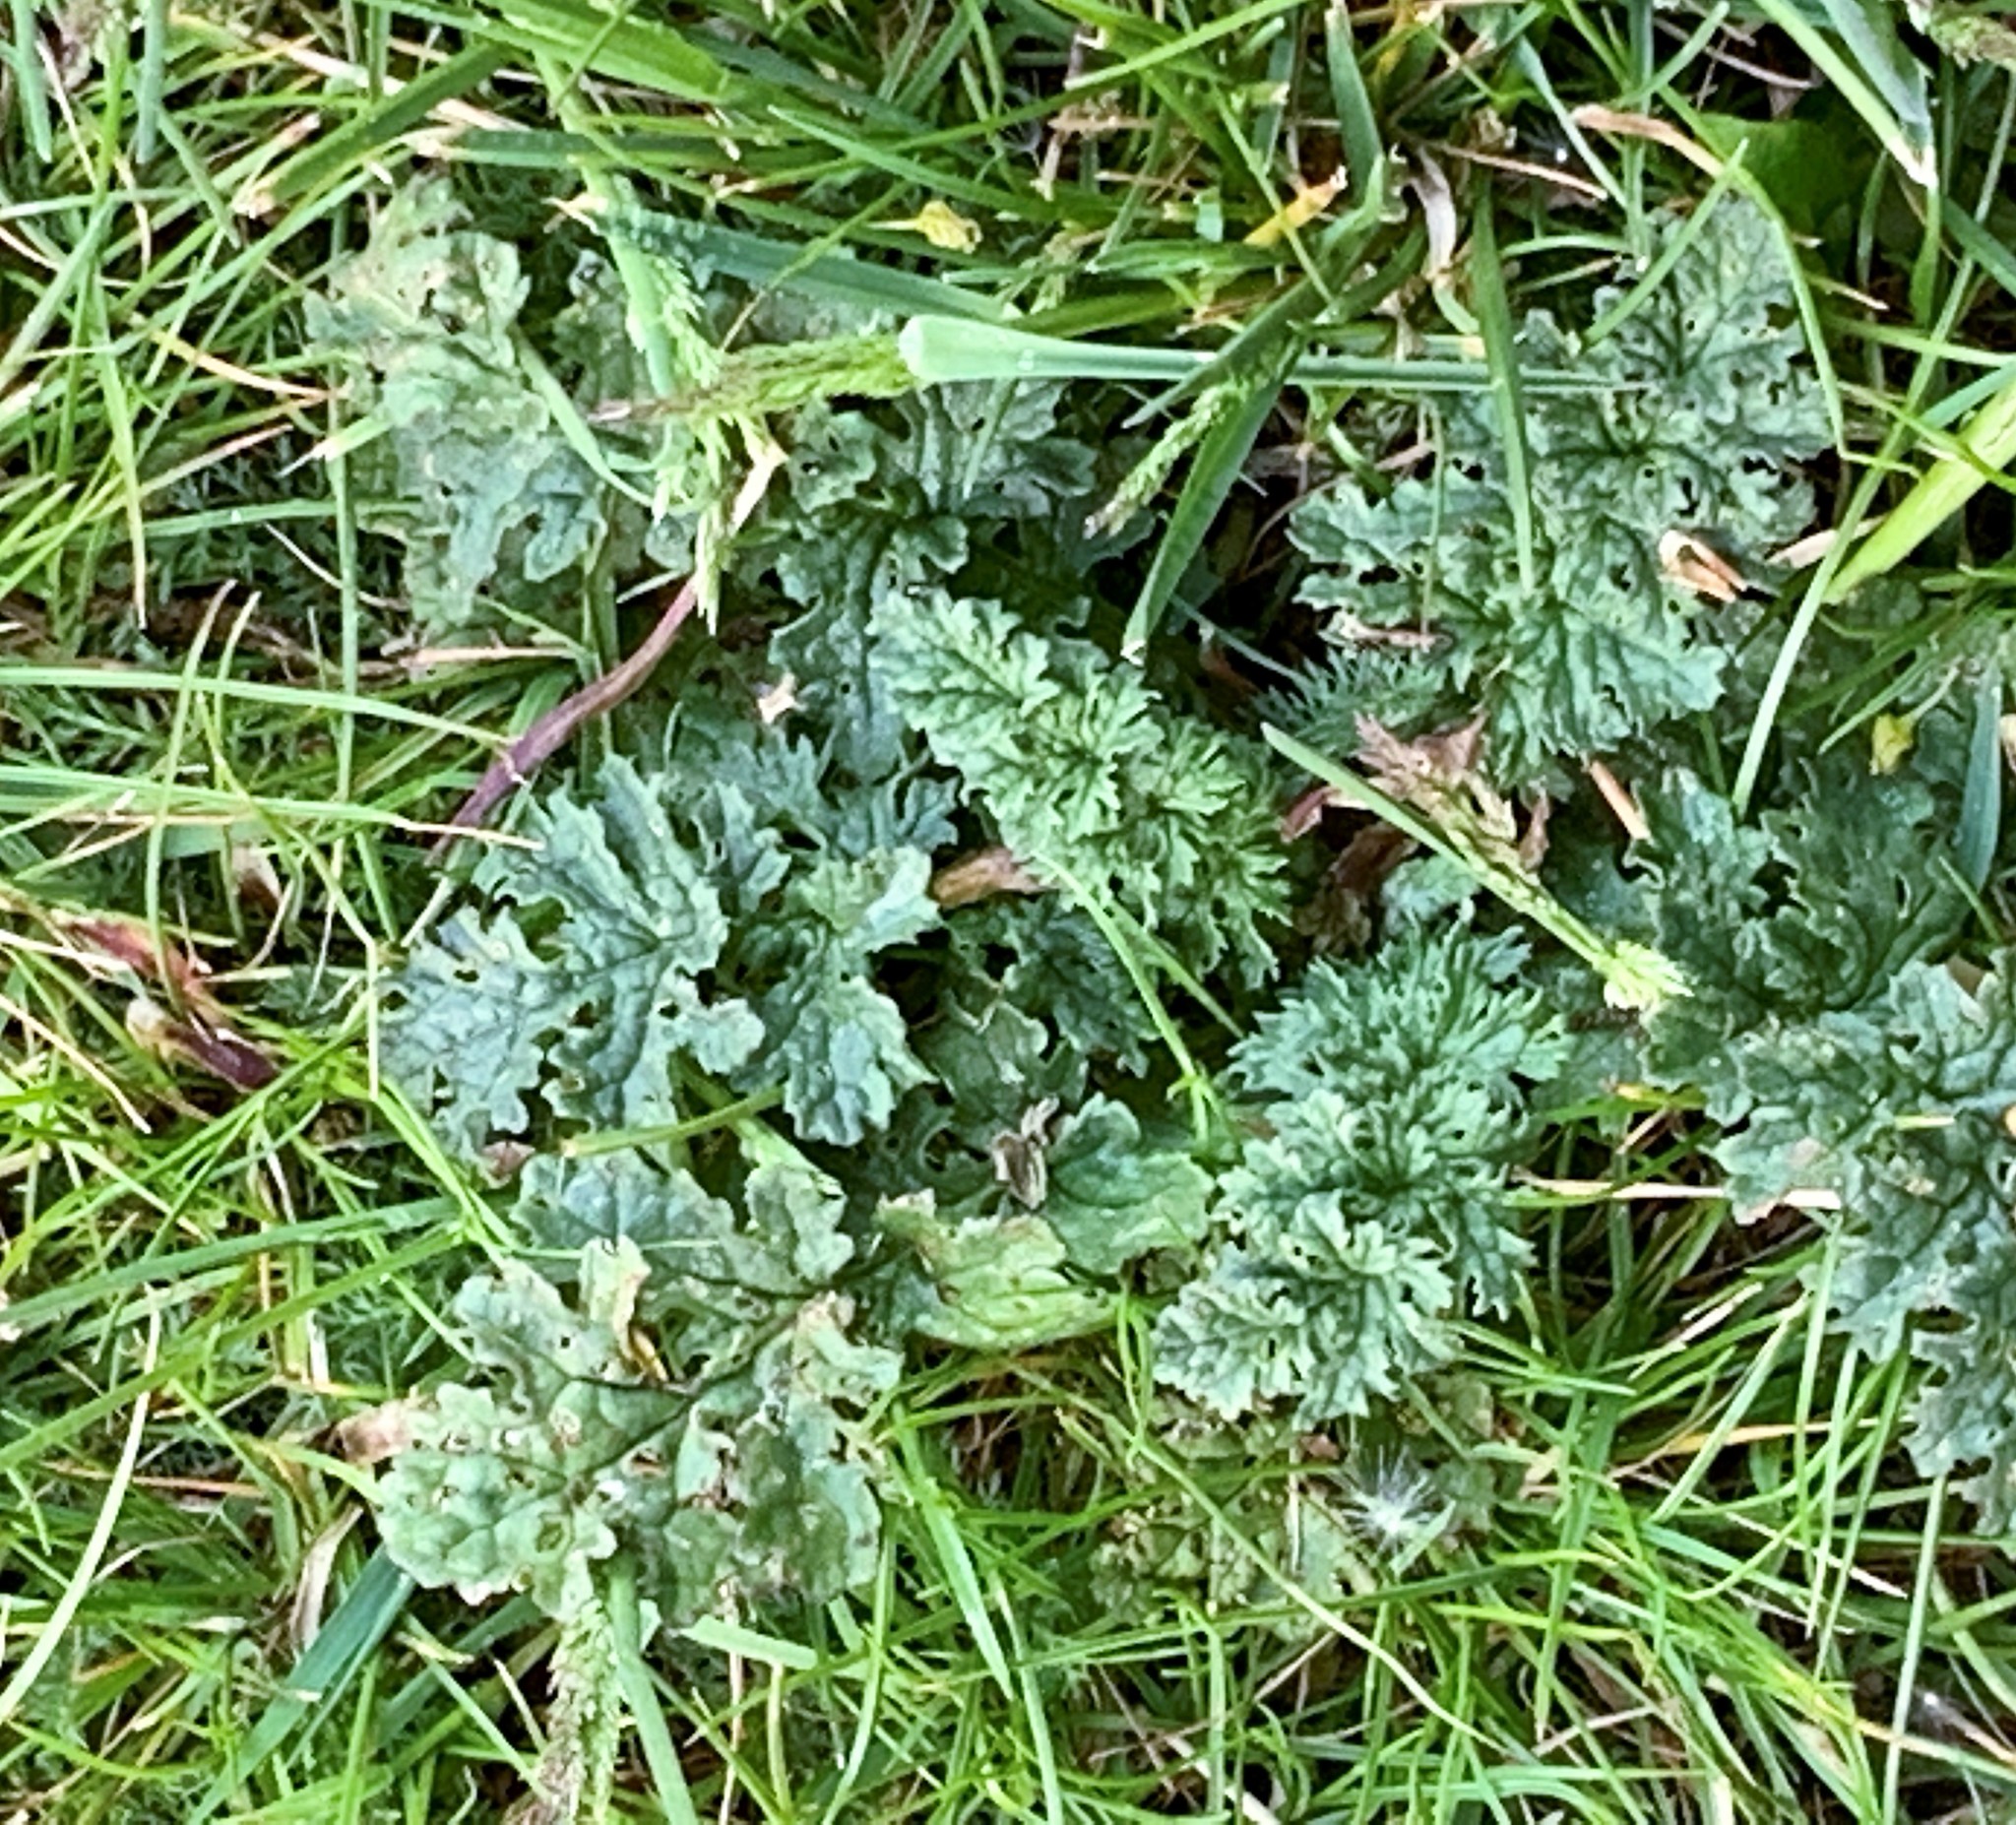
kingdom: Plantae
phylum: Tracheophyta
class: Magnoliopsida
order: Asterales
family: Asteraceae
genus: Jacobaea
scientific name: Jacobaea vulgaris
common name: Stinking willie
